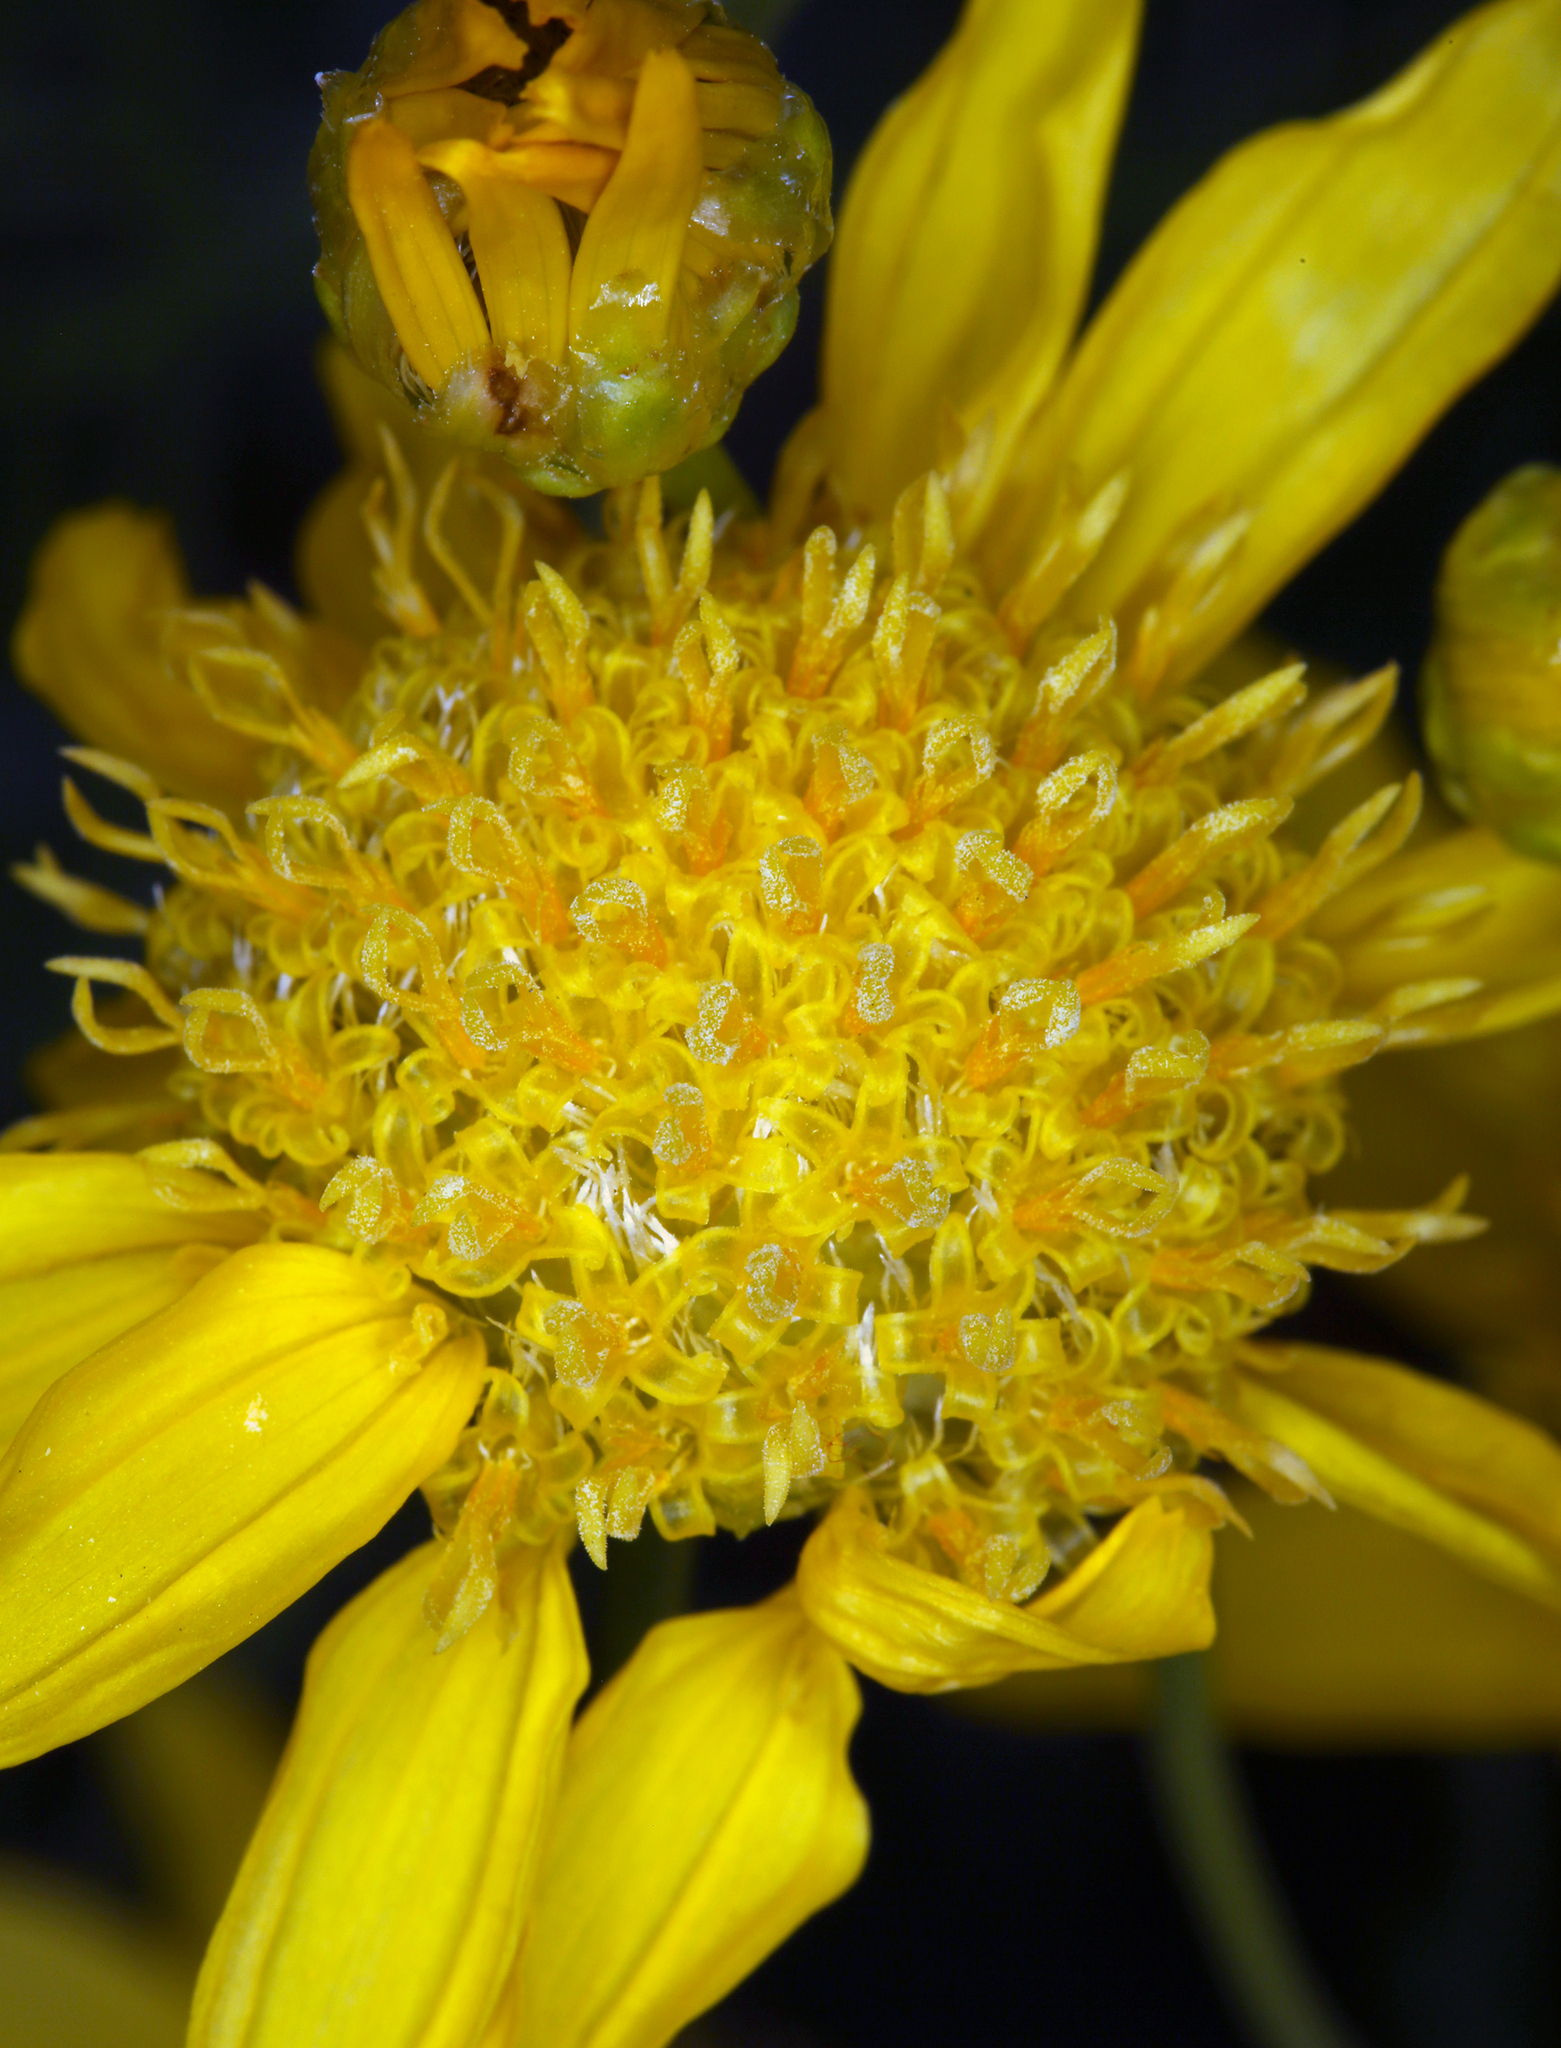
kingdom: Plantae
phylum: Tracheophyta
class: Magnoliopsida
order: Asterales
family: Asteraceae
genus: Acamptopappus
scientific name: Acamptopappus shockleyi
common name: Shockley's goldenhead
